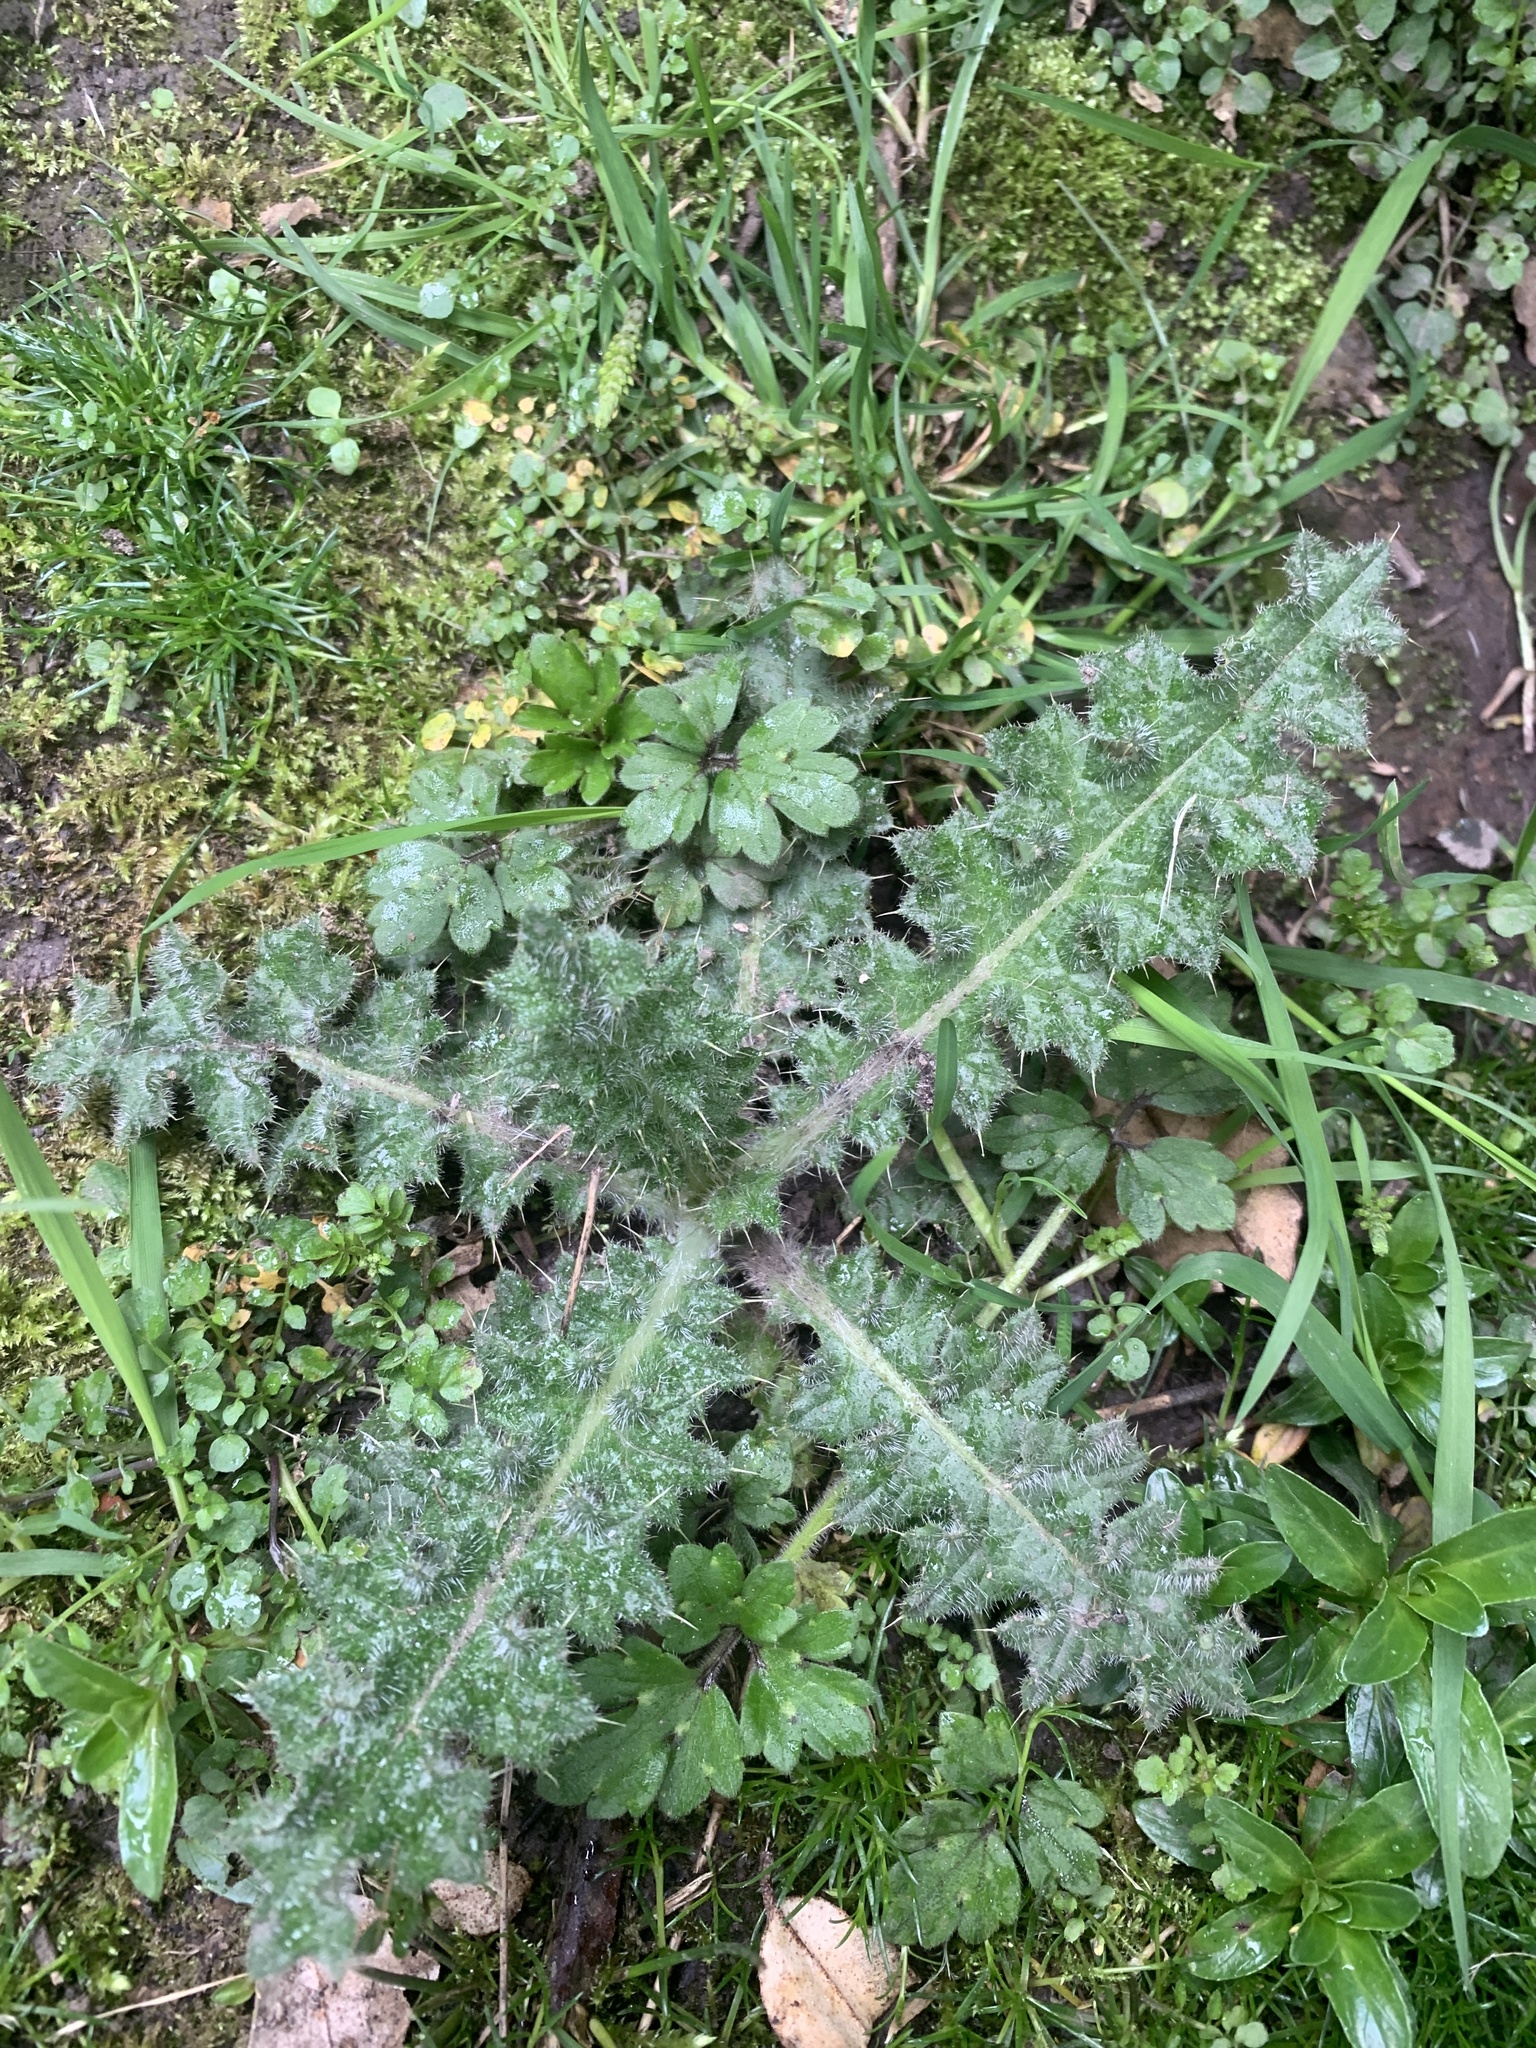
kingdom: Plantae
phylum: Tracheophyta
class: Magnoliopsida
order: Asterales
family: Asteraceae
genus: Cirsium
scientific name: Cirsium vulgare
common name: Bull thistle
